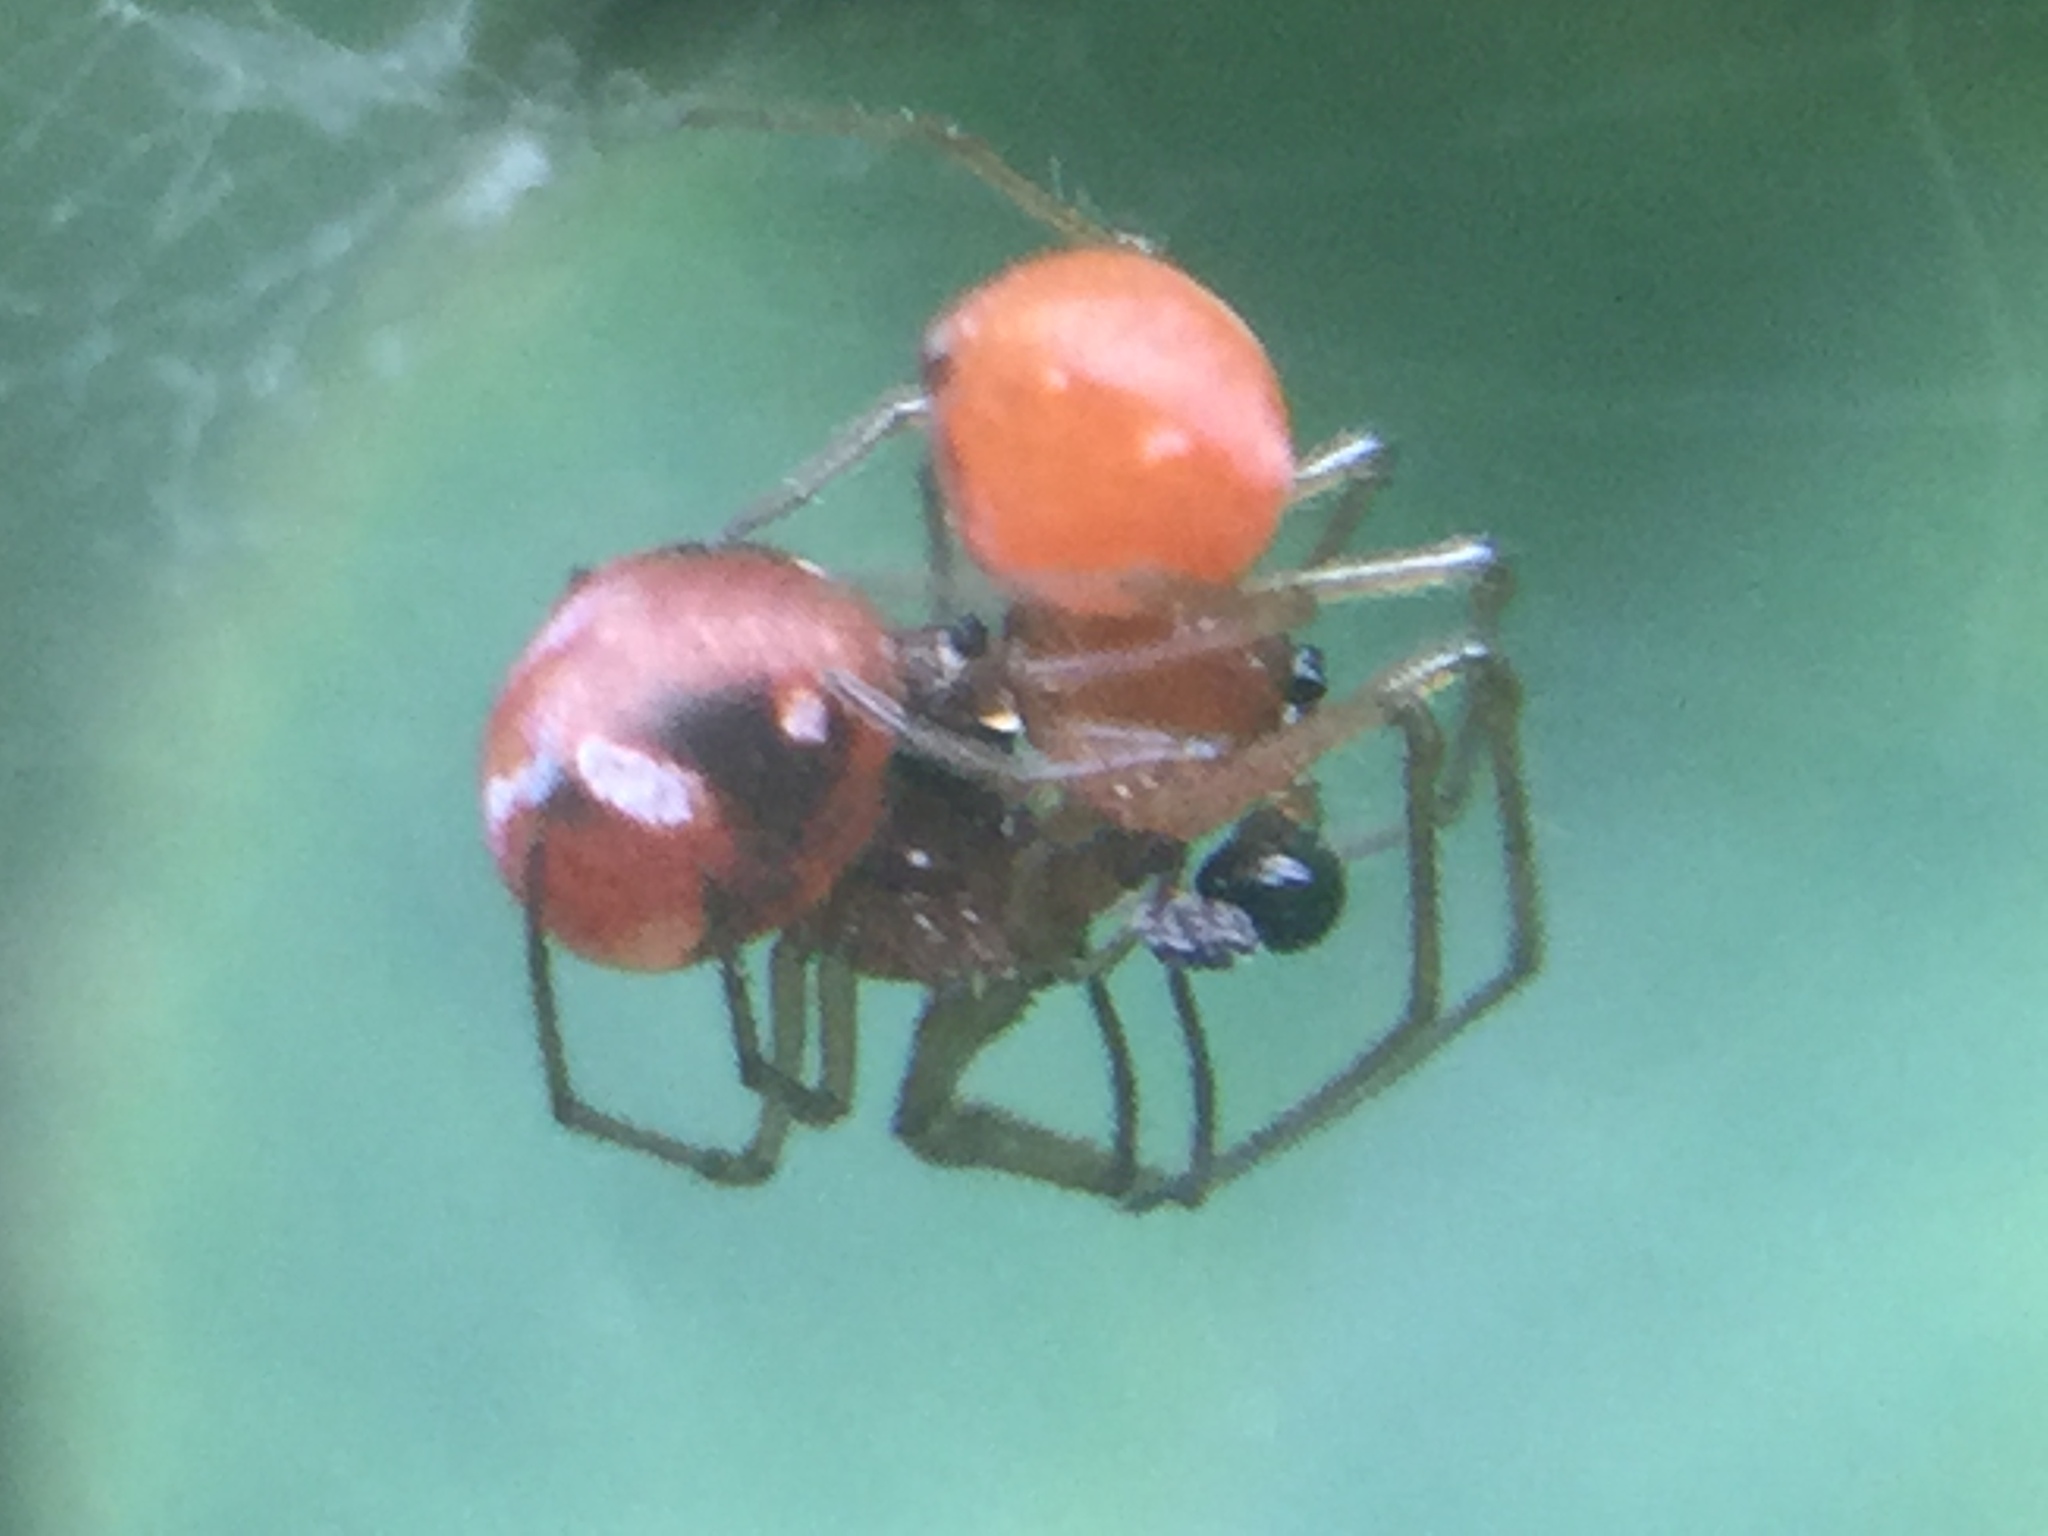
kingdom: Animalia
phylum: Arthropoda
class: Arachnida
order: Araneae
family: Tetragnathidae
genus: Glenognatha
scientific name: Glenognatha foxi
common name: Longjawed orb weavers
